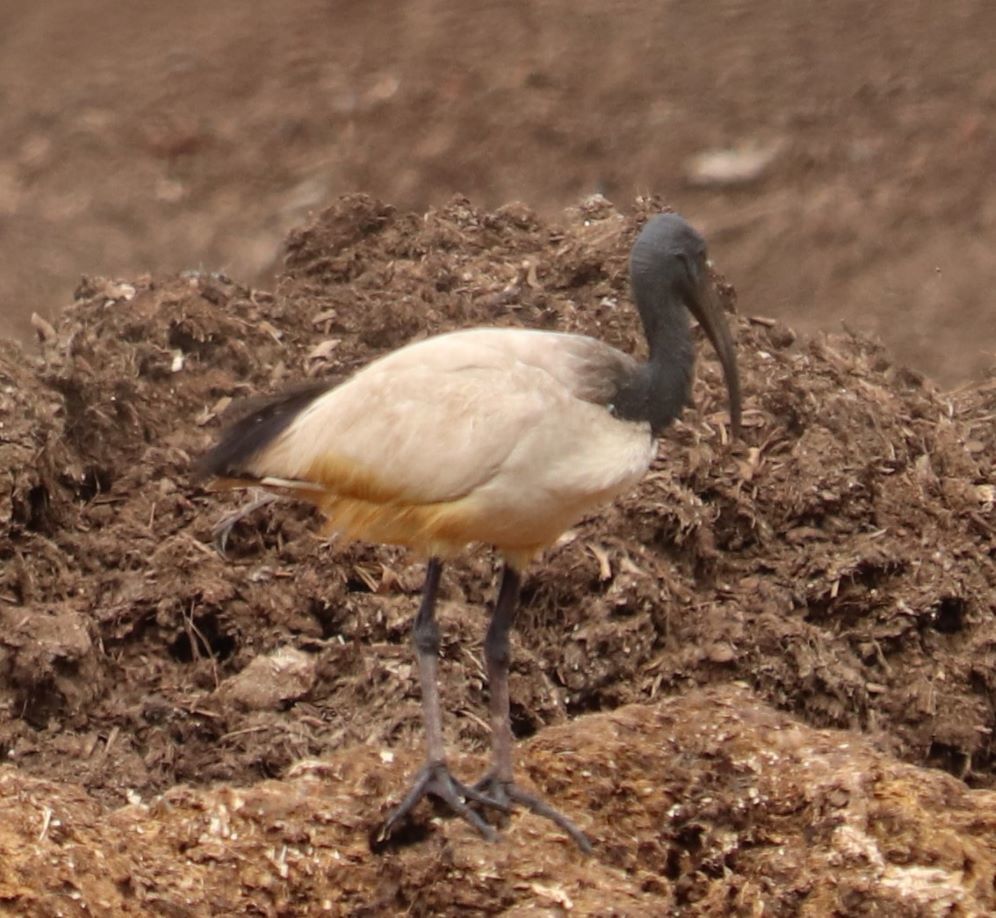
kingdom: Animalia
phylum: Chordata
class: Aves
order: Pelecaniformes
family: Threskiornithidae
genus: Threskiornis
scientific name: Threskiornis aethiopicus
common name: Sacred ibis
